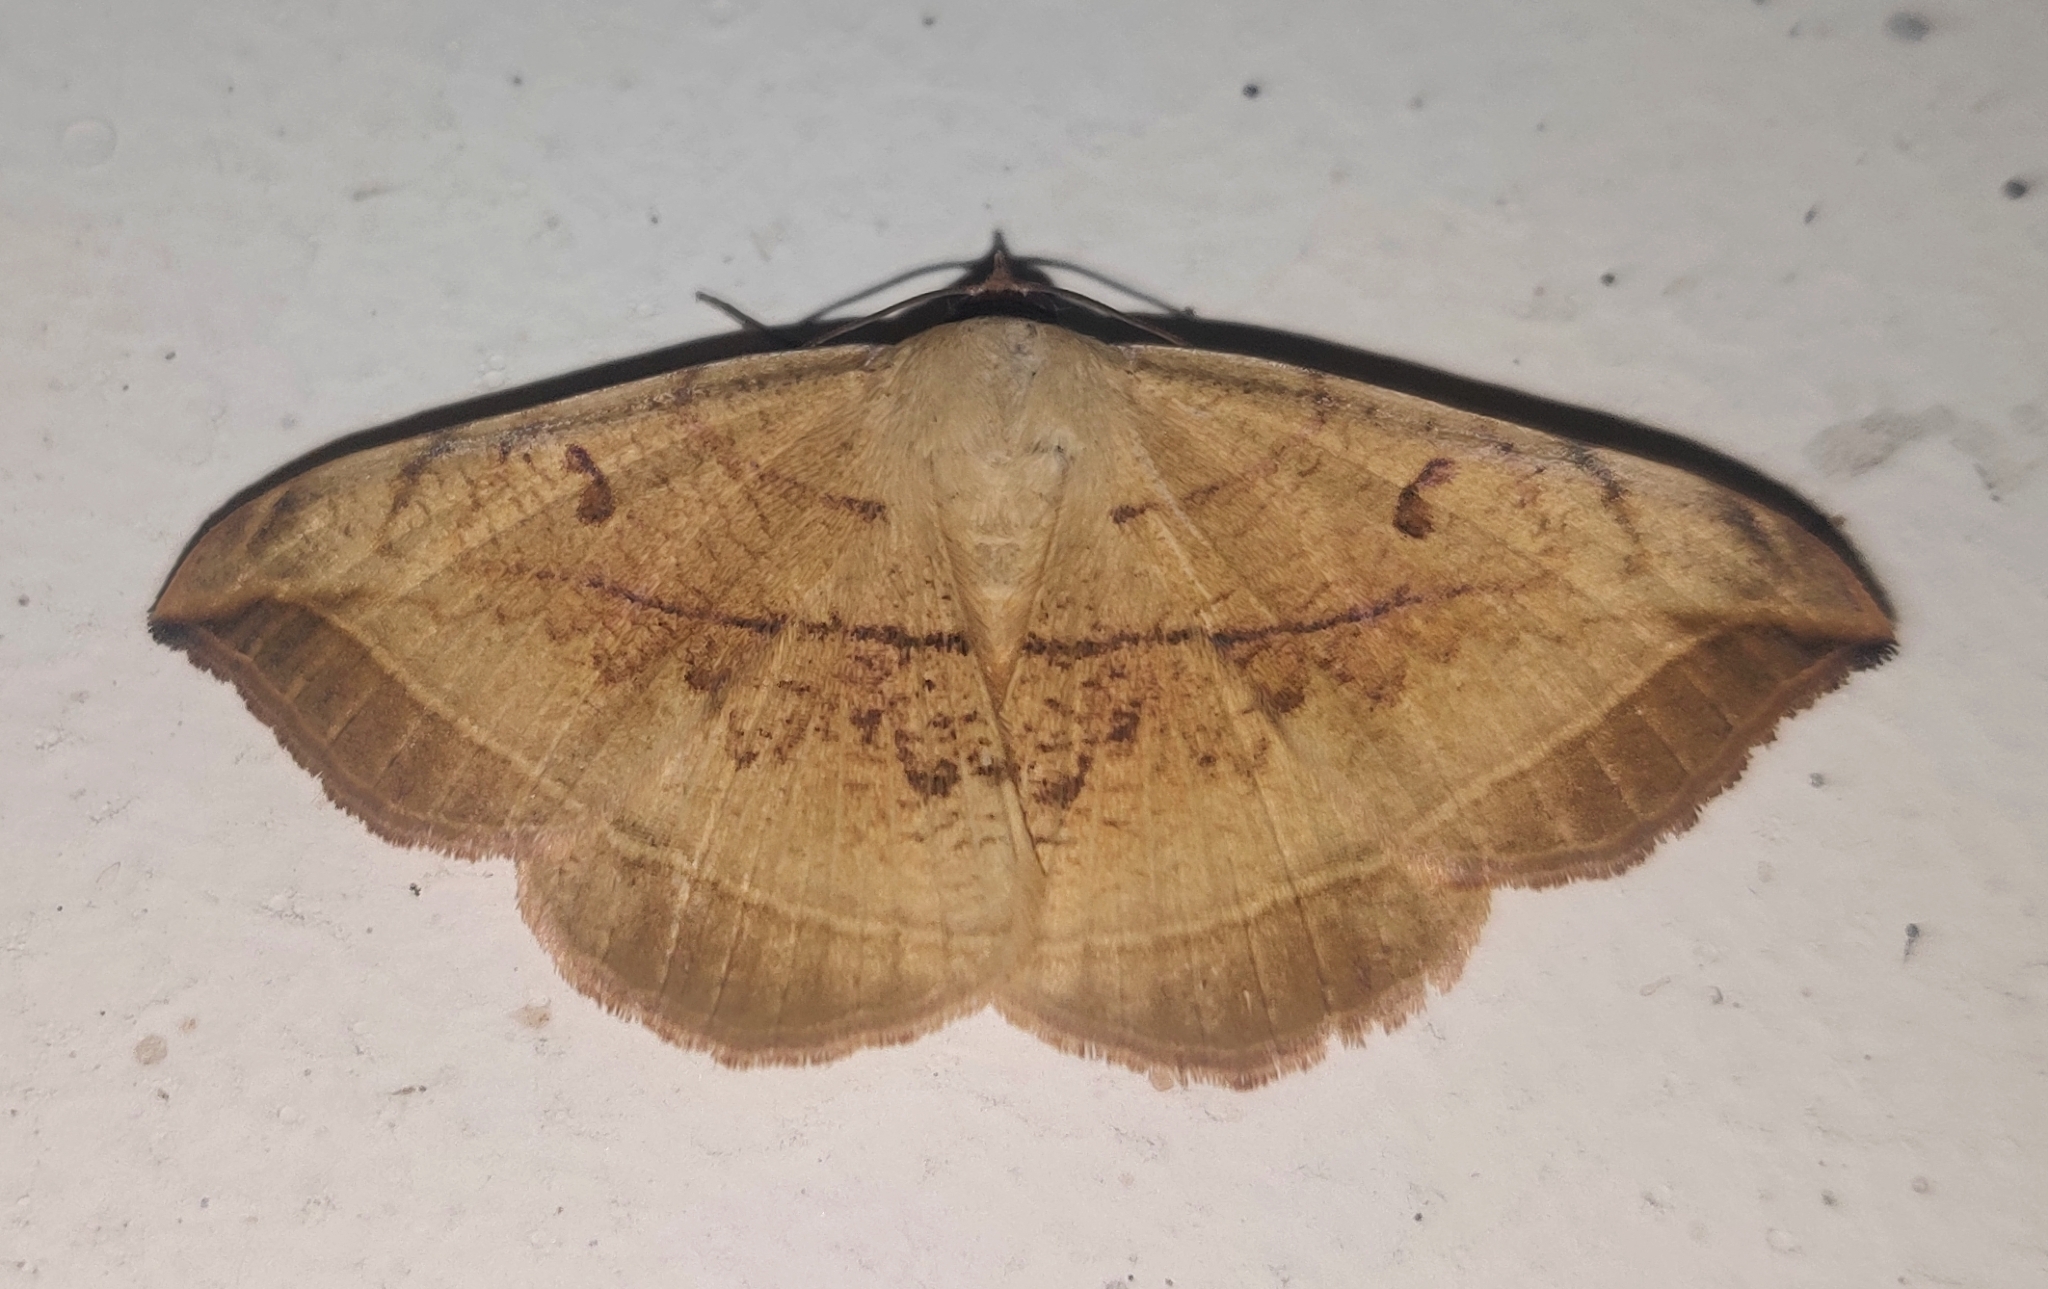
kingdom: Animalia
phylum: Arthropoda
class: Insecta
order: Lepidoptera
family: Erebidae
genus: Entomogramma
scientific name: Entomogramma mediocris
